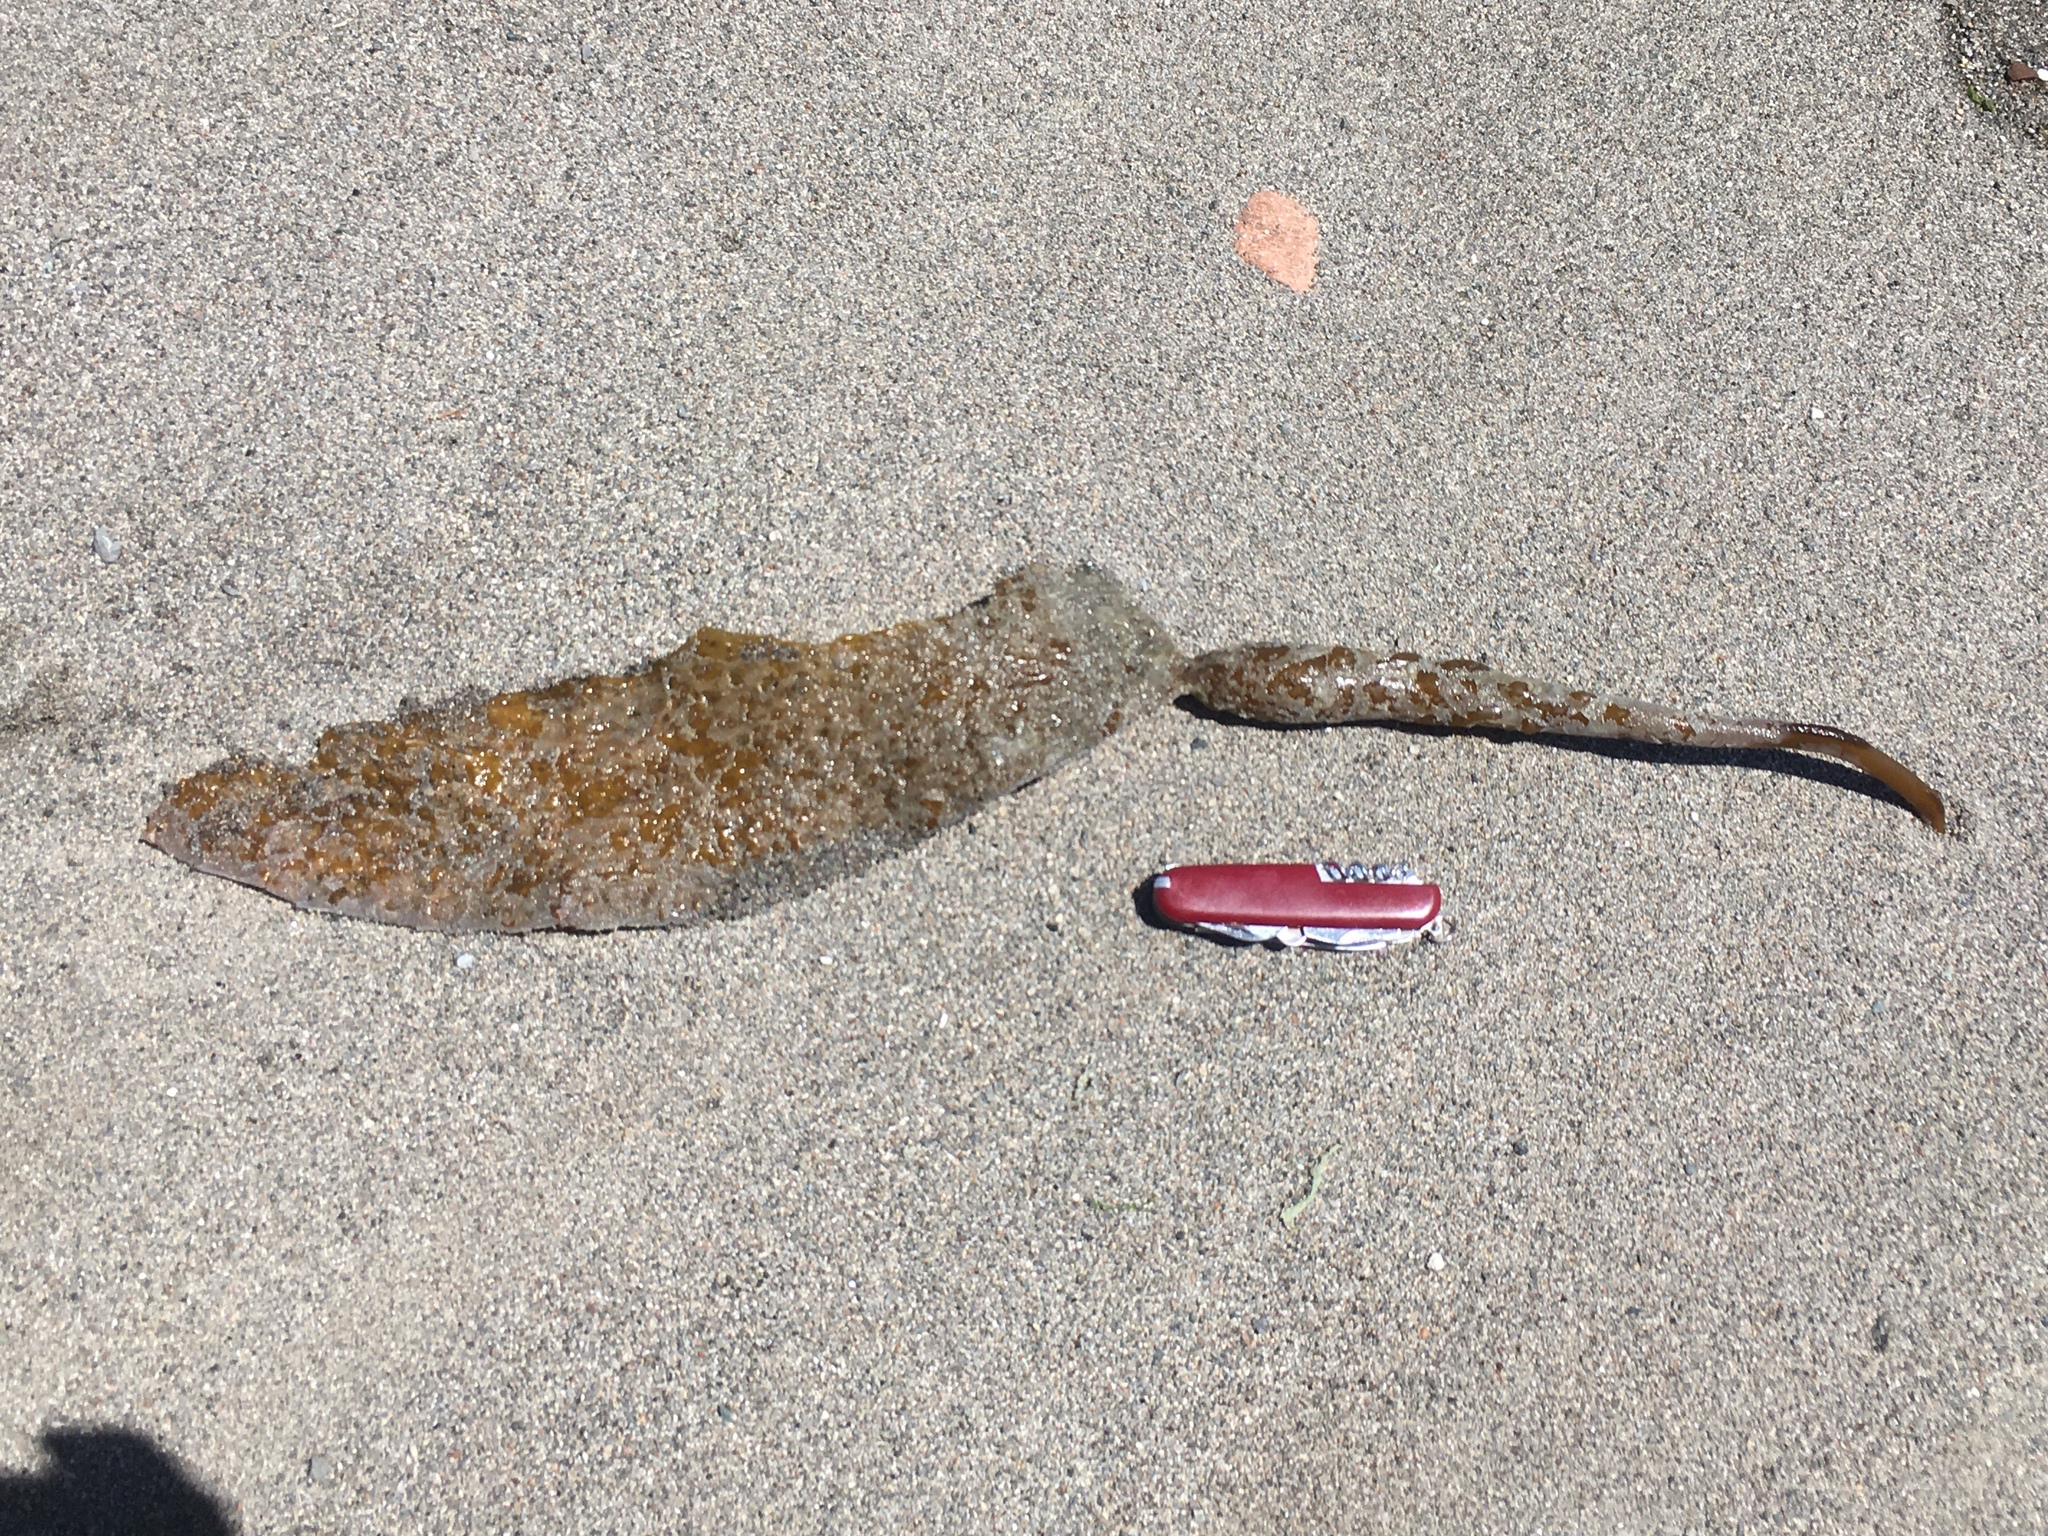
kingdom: Chromista
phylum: Ochrophyta
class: Phaeophyceae
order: Laminariales
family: Laminariaceae
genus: Macrocystis
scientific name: Macrocystis pyrifera
